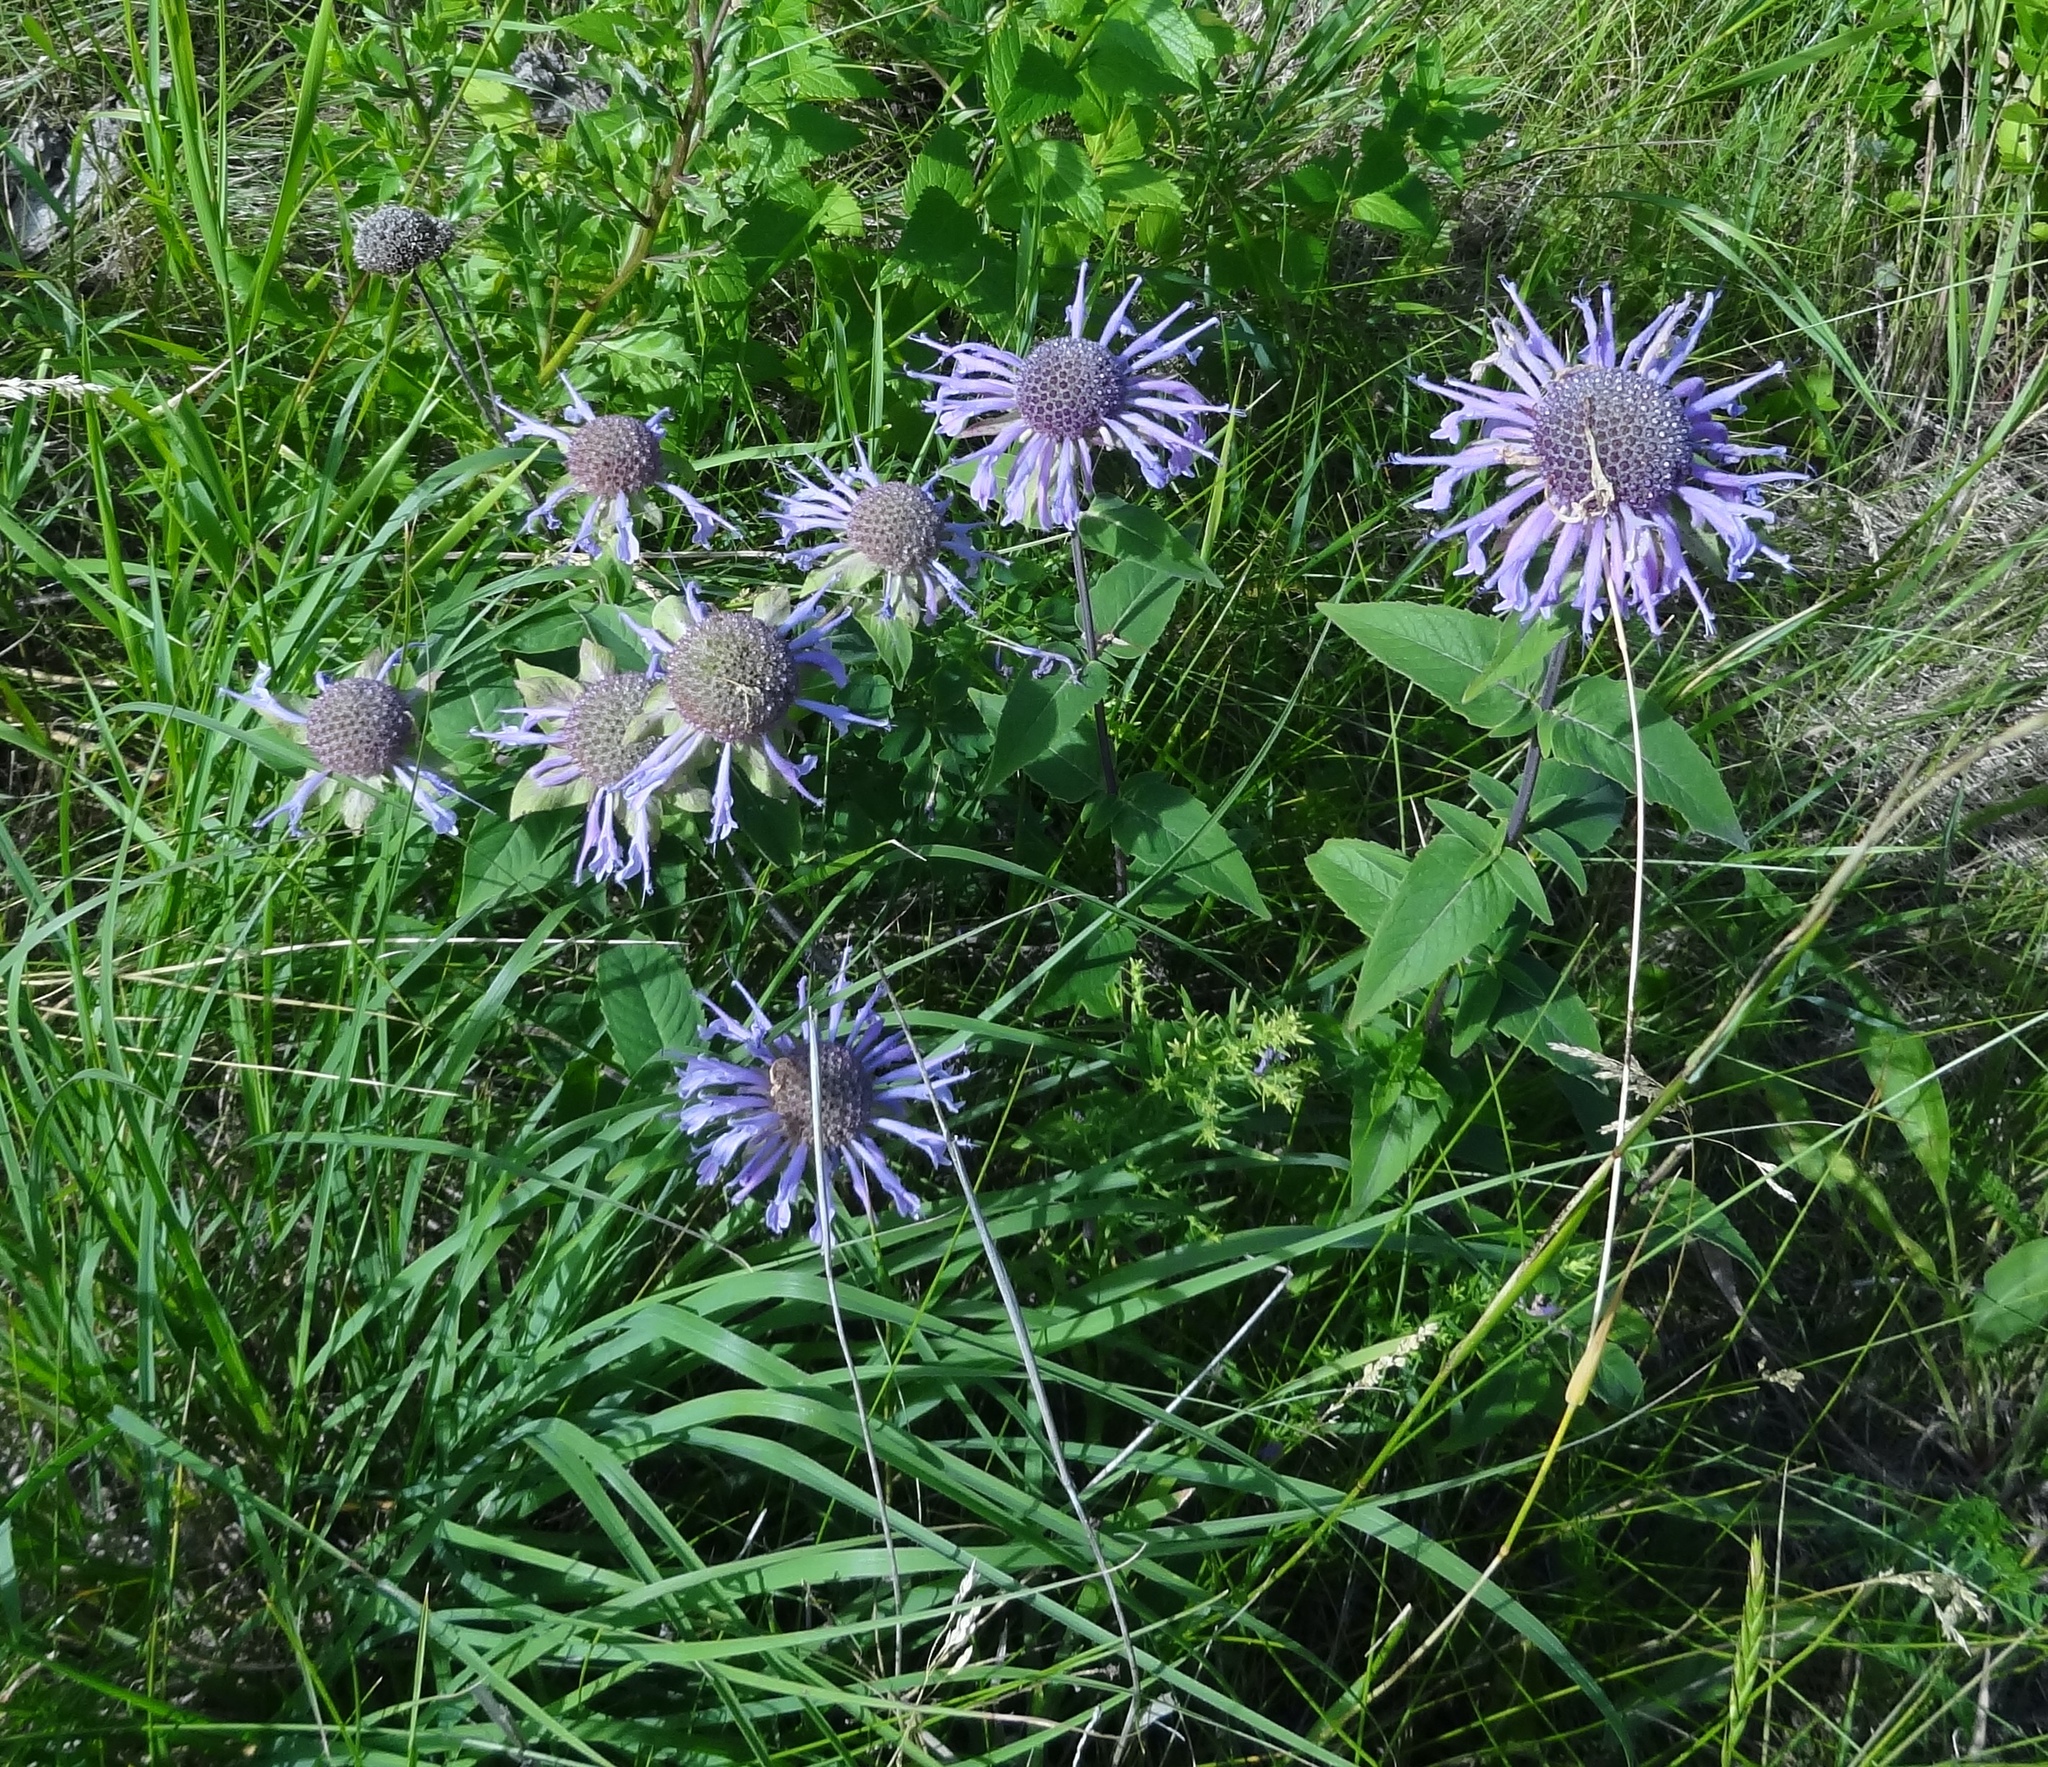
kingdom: Plantae
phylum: Tracheophyta
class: Magnoliopsida
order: Lamiales
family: Lamiaceae
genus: Monarda
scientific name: Monarda fistulosa
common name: Purple beebalm
